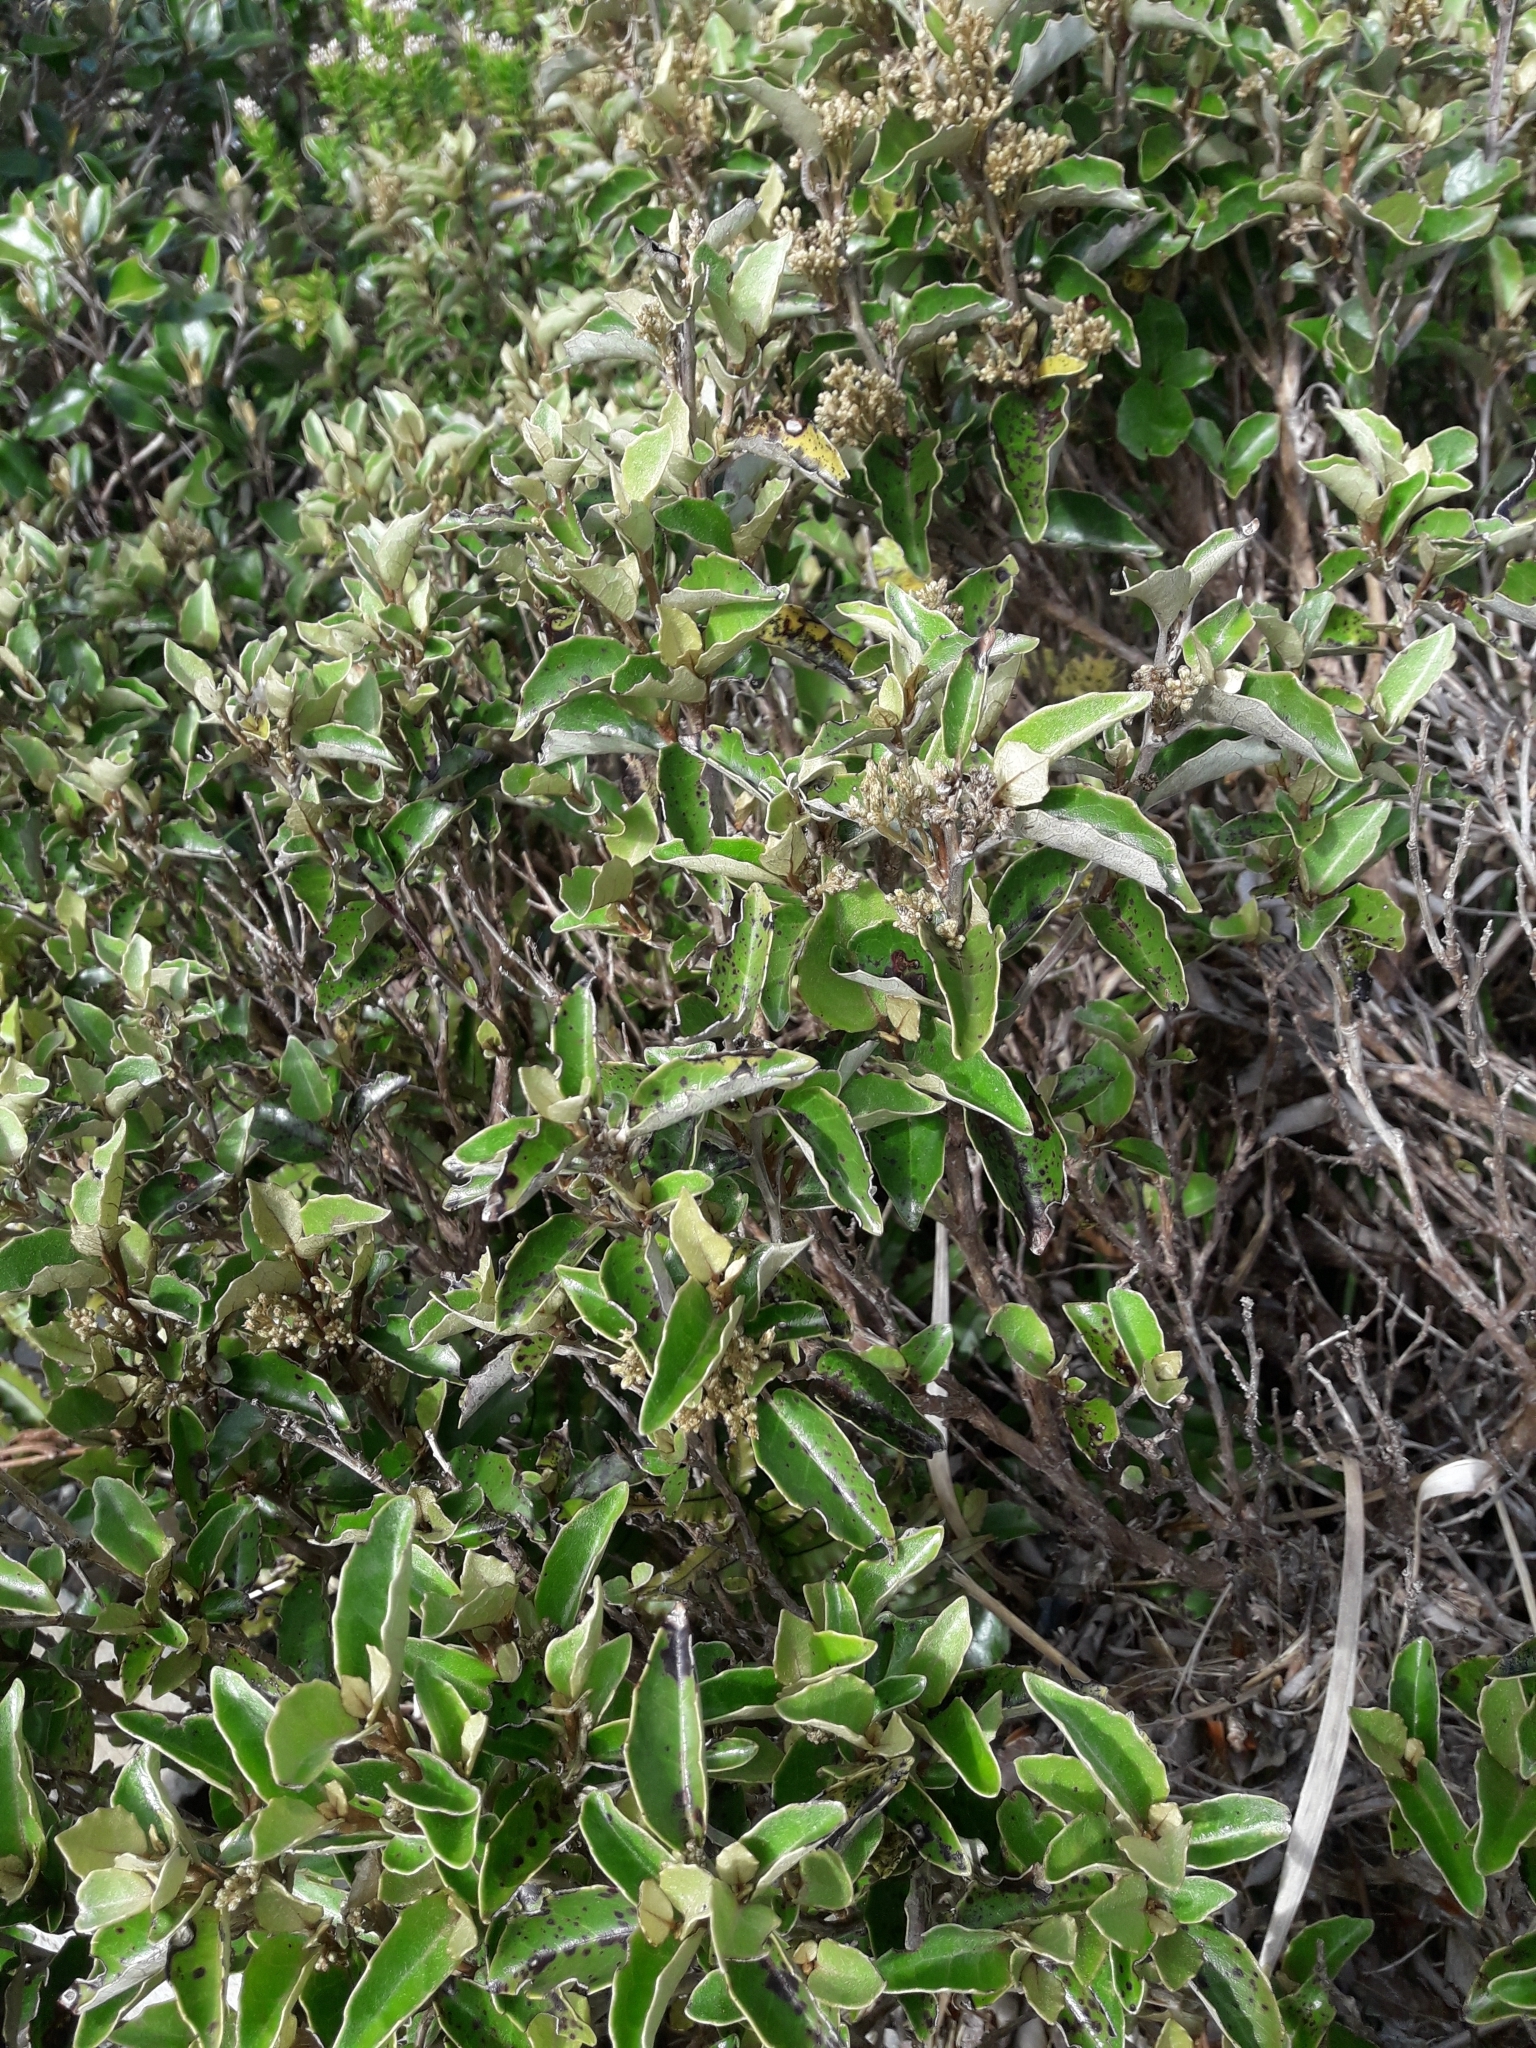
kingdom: Plantae
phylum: Tracheophyta
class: Magnoliopsida
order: Asterales
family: Asteraceae
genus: Olearia
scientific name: Olearia arborescens
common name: Glossy tree daisy
